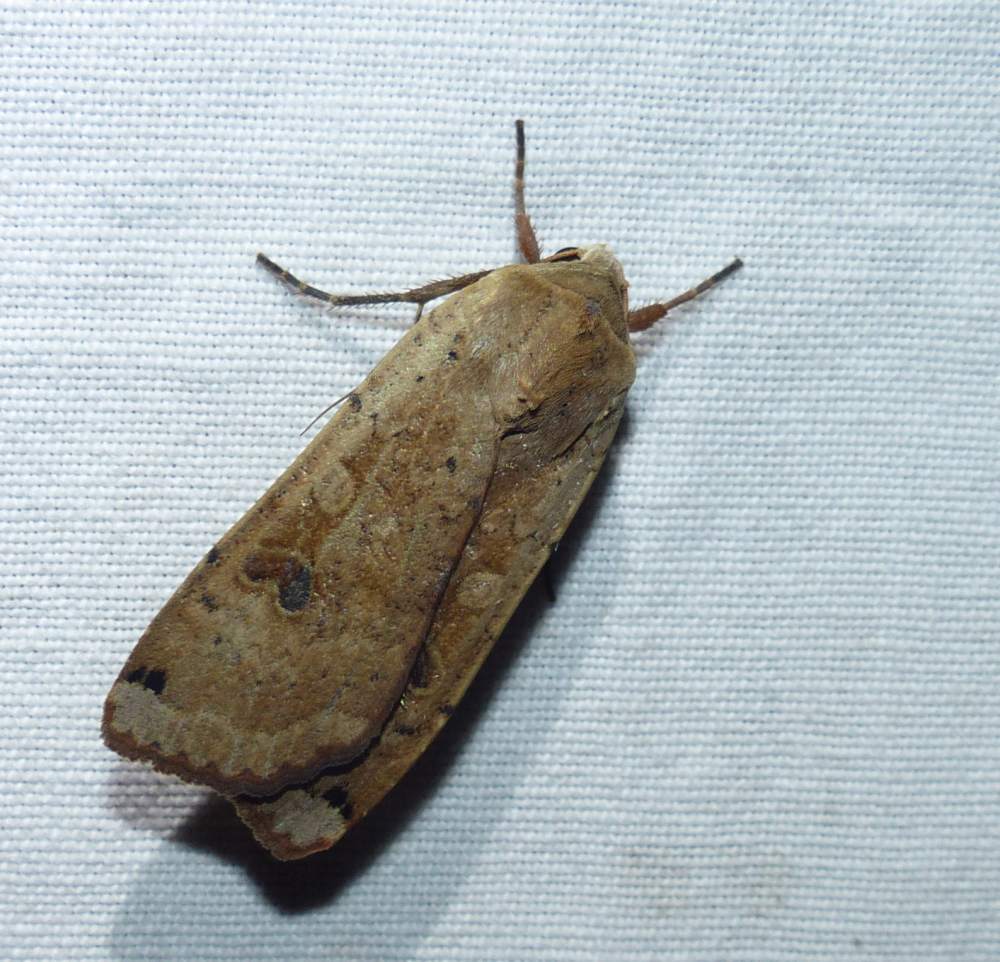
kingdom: Animalia
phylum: Arthropoda
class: Insecta
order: Lepidoptera
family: Noctuidae
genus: Noctua
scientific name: Noctua pronuba
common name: Large yellow underwing
